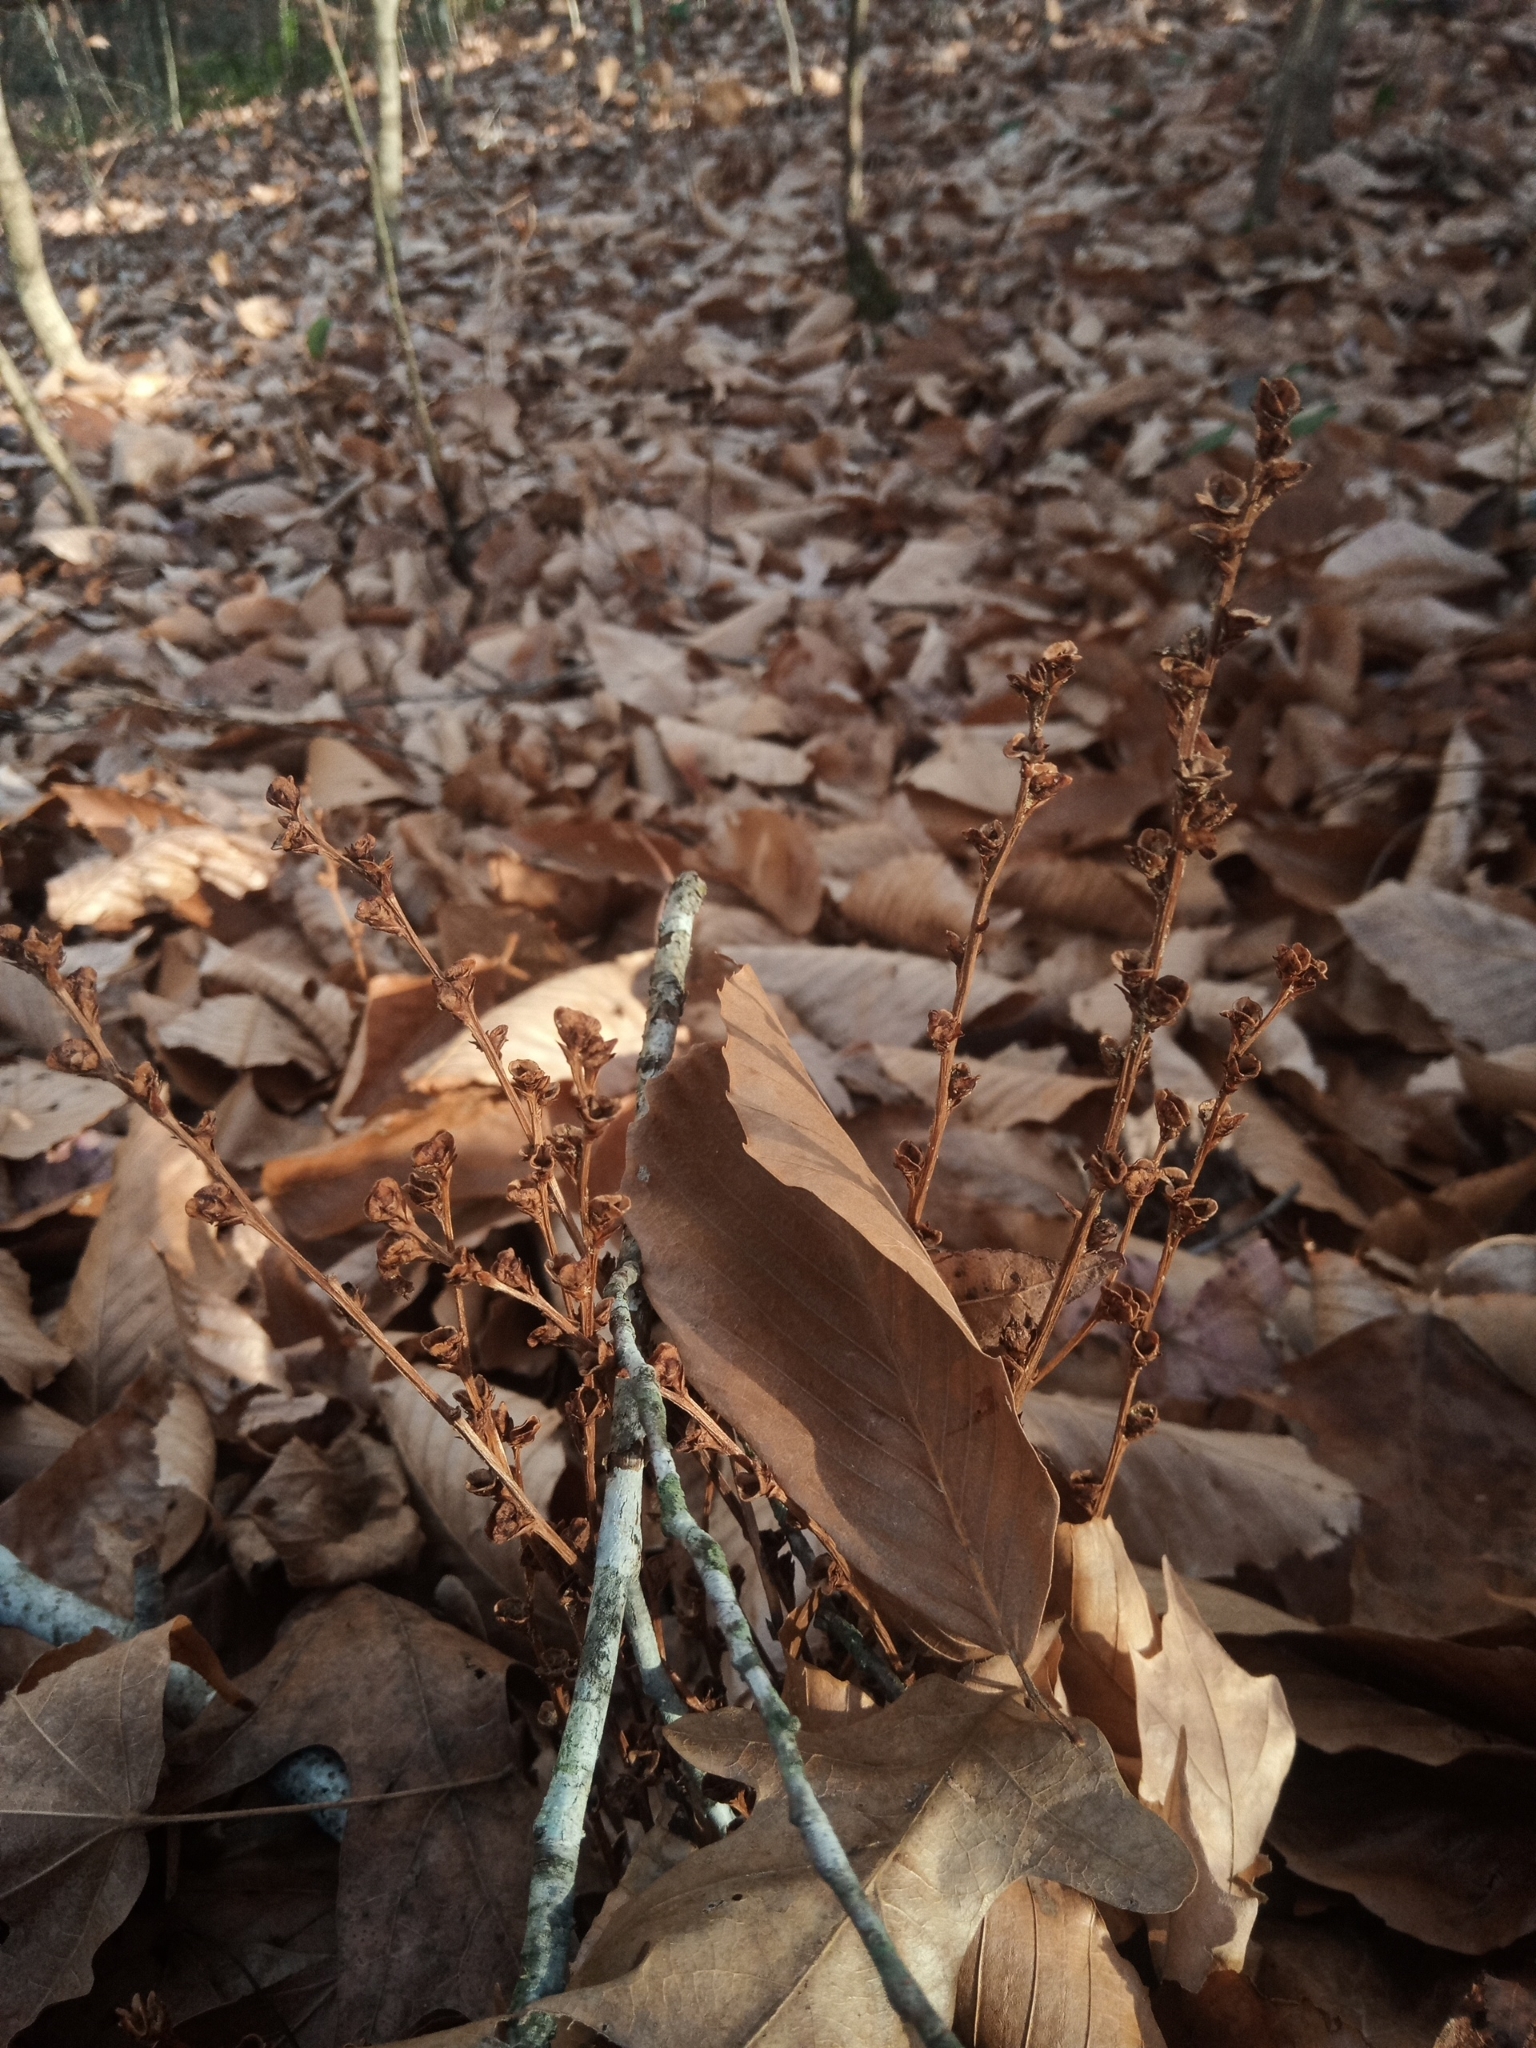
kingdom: Plantae
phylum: Tracheophyta
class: Magnoliopsida
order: Lamiales
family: Orobanchaceae
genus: Epifagus
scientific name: Epifagus virginiana
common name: Beechdrops
